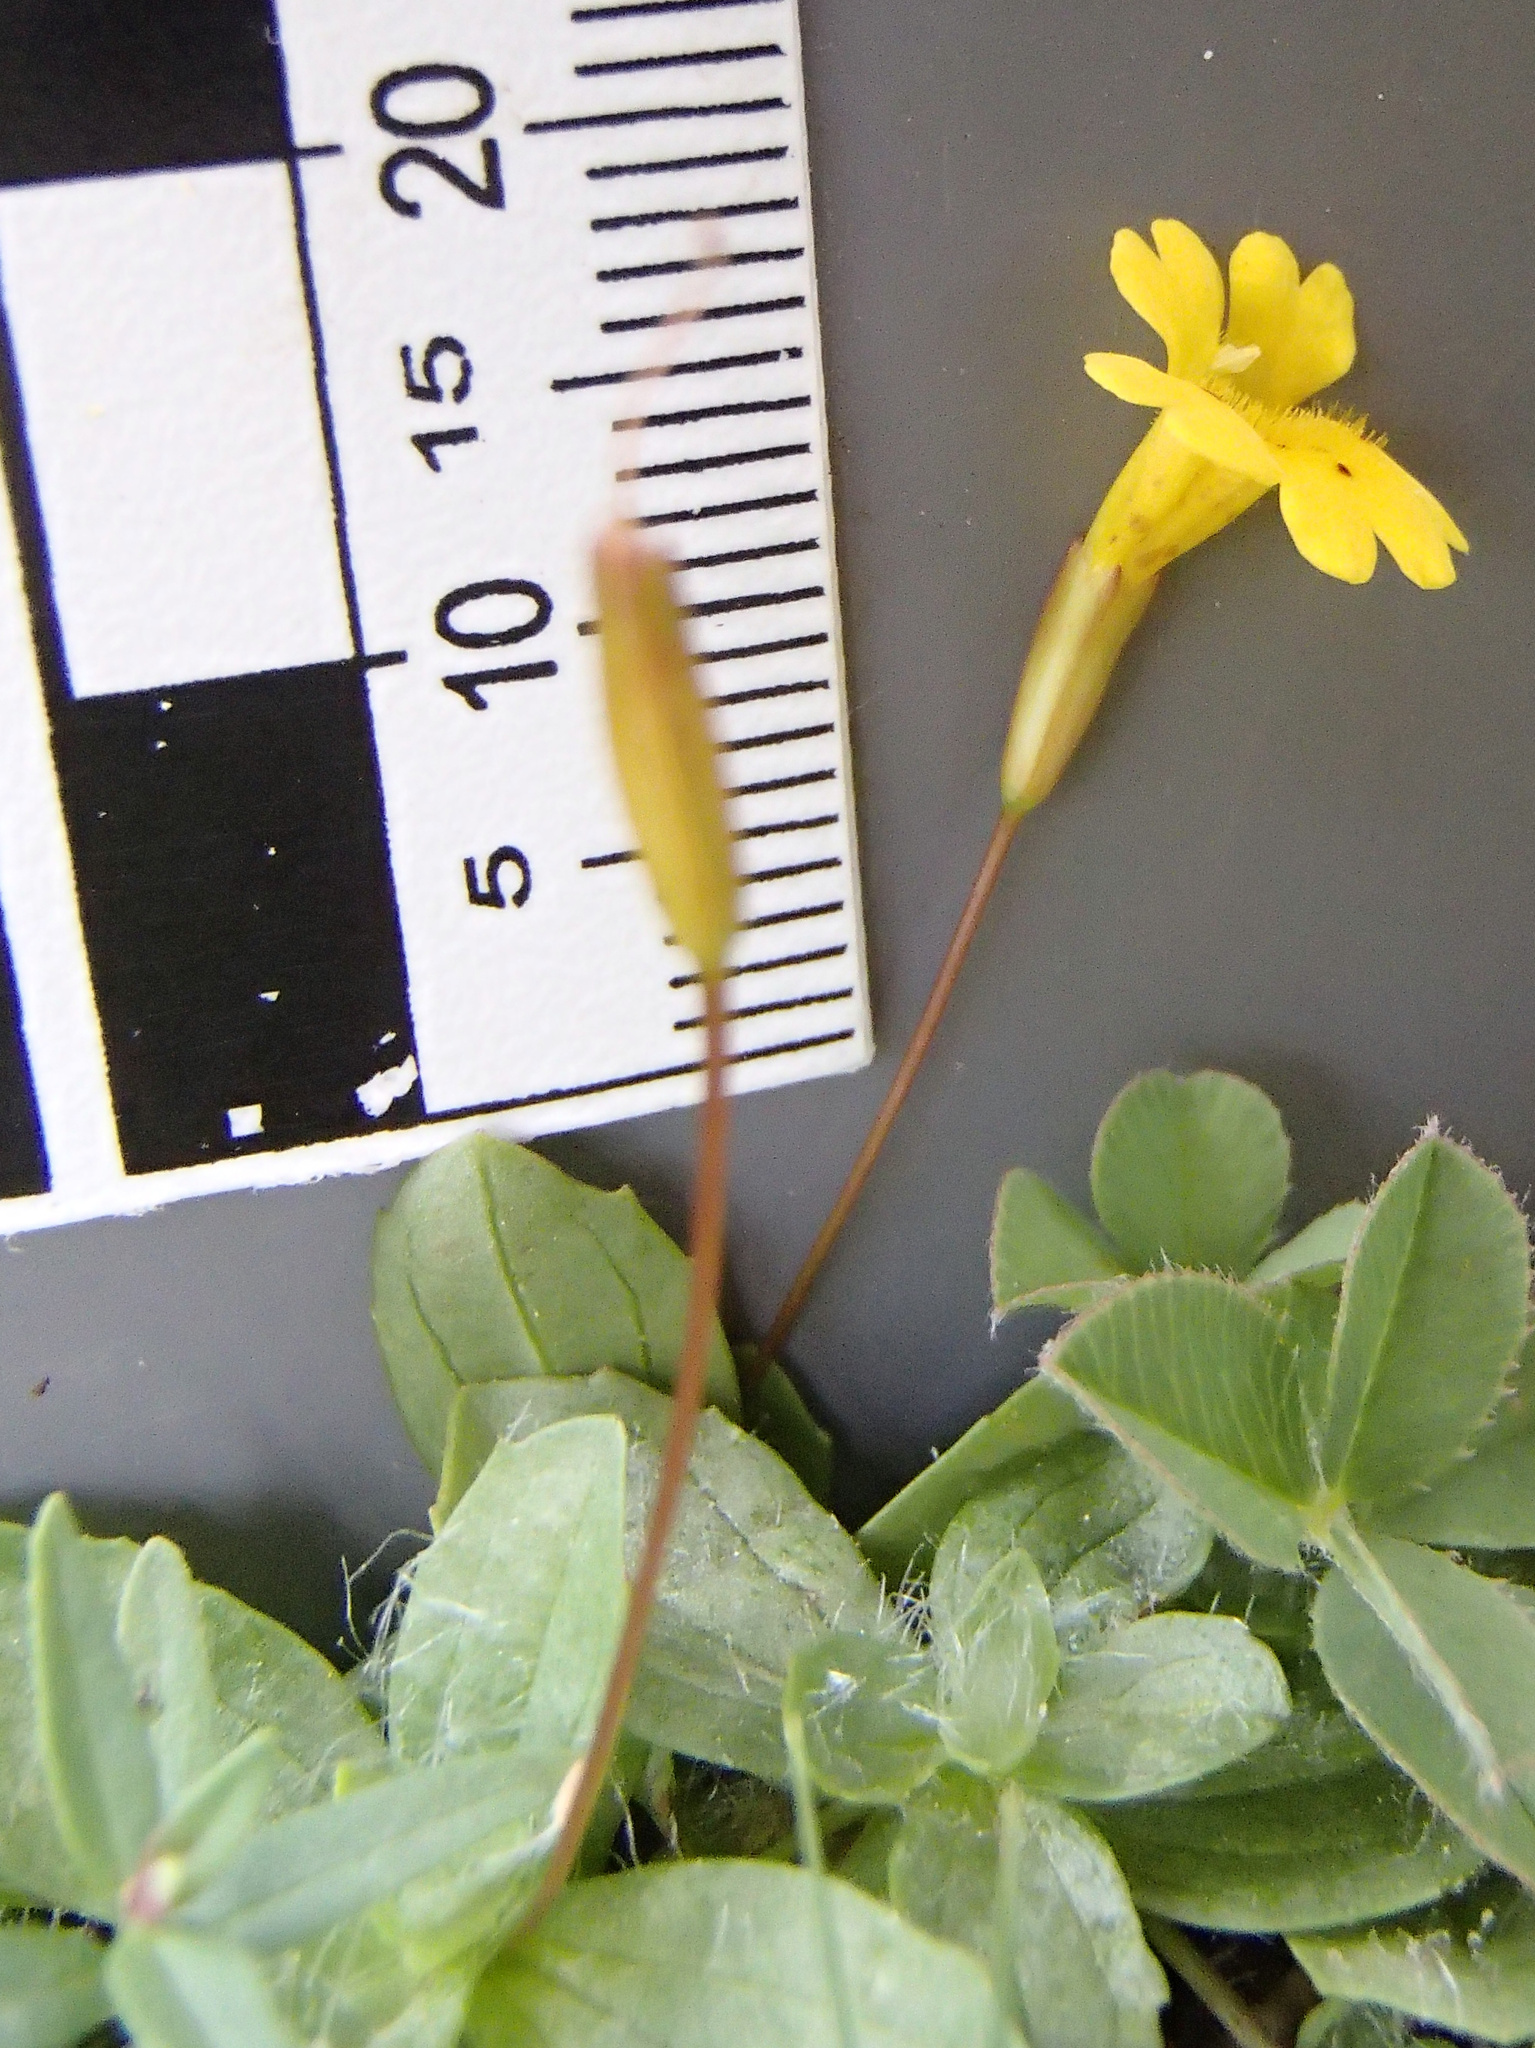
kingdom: Plantae
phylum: Tracheophyta
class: Magnoliopsida
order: Lamiales
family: Phrymaceae
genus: Erythranthe
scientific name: Erythranthe primuloides
